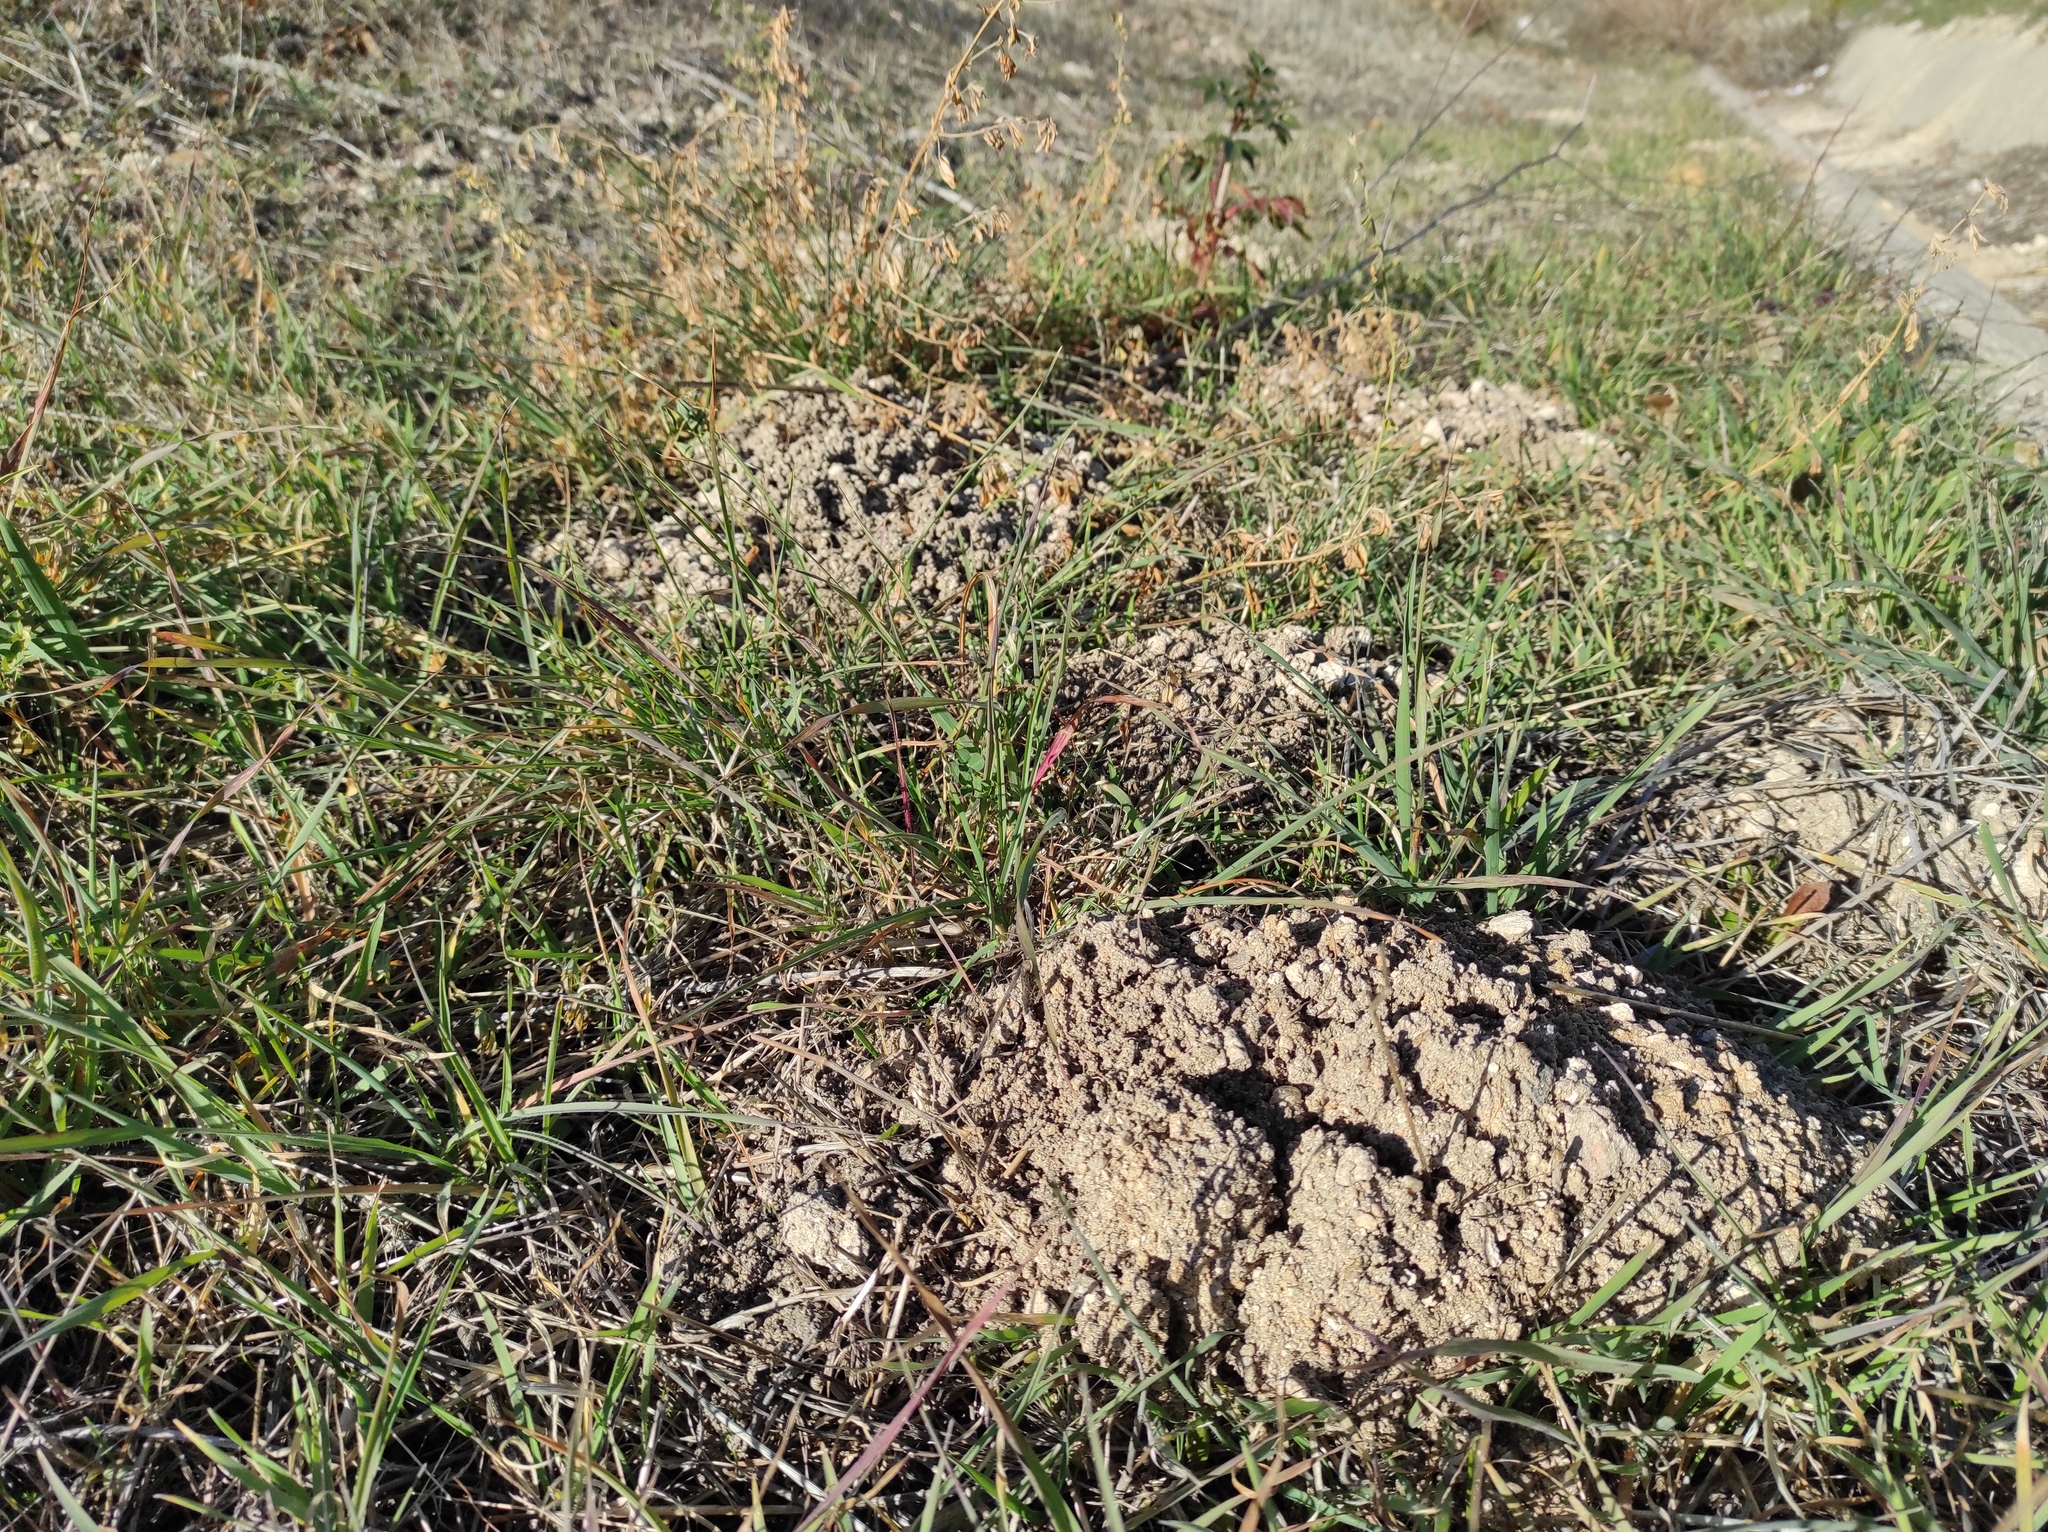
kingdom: Animalia
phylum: Chordata
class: Mammalia
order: Rodentia
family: Cricetidae
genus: Microtus
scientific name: Microtus duodecimcostatus
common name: Mediterranean pine vole
